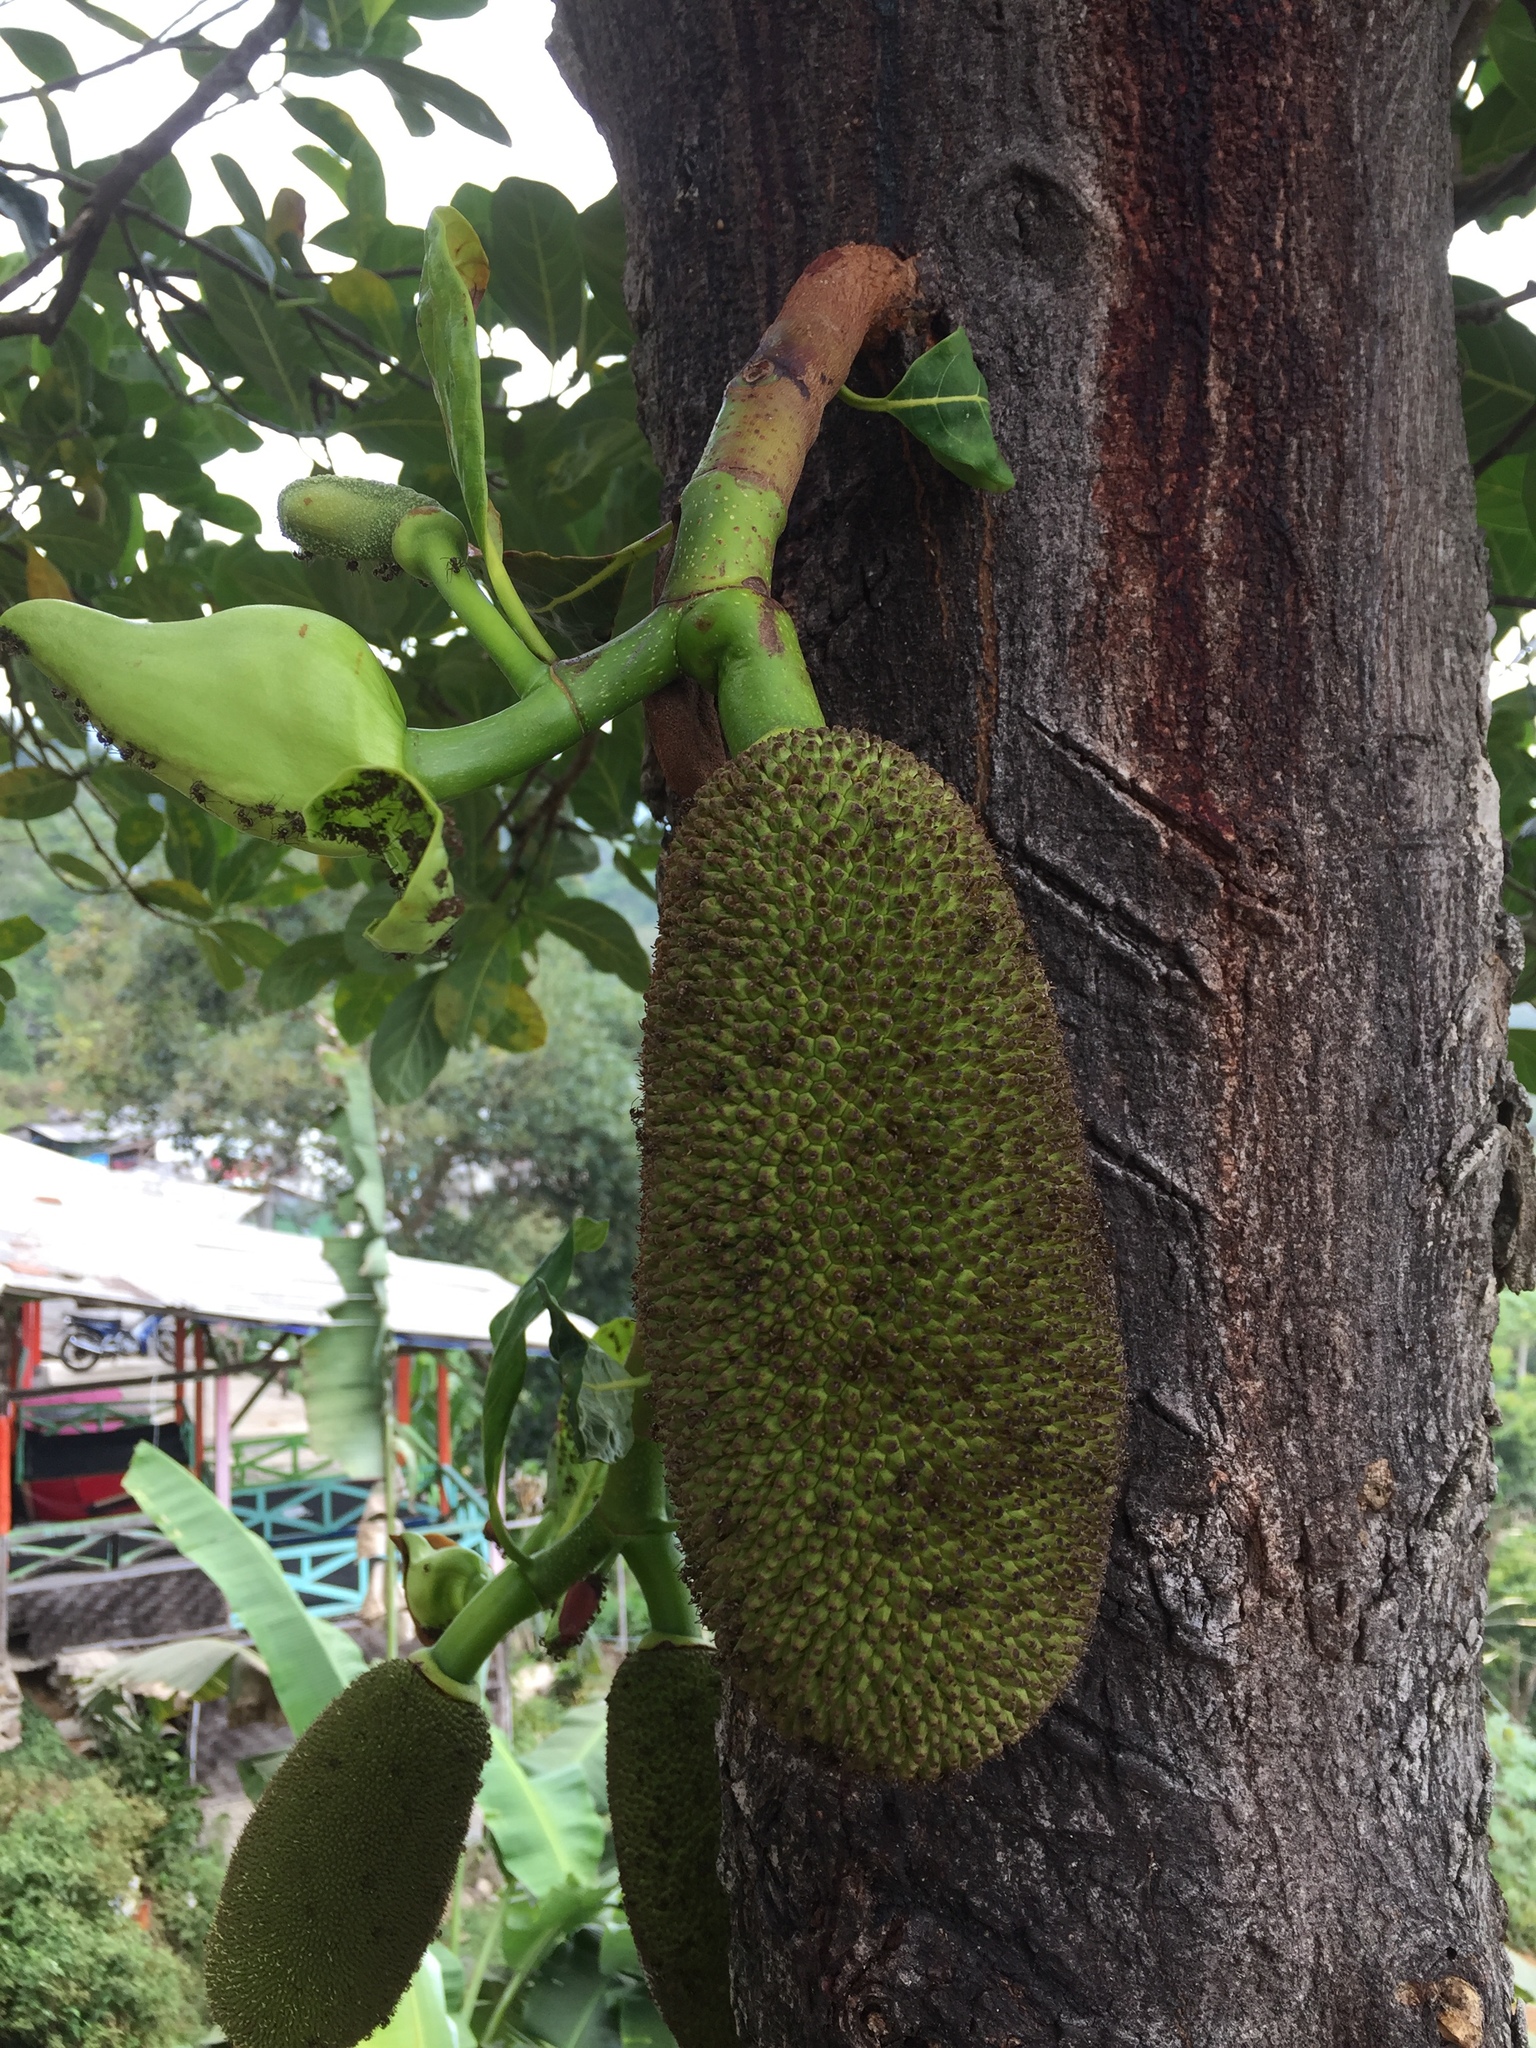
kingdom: Plantae
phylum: Tracheophyta
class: Magnoliopsida
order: Rosales
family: Moraceae
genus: Artocarpus
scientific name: Artocarpus heterophyllus
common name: Jackfruit
